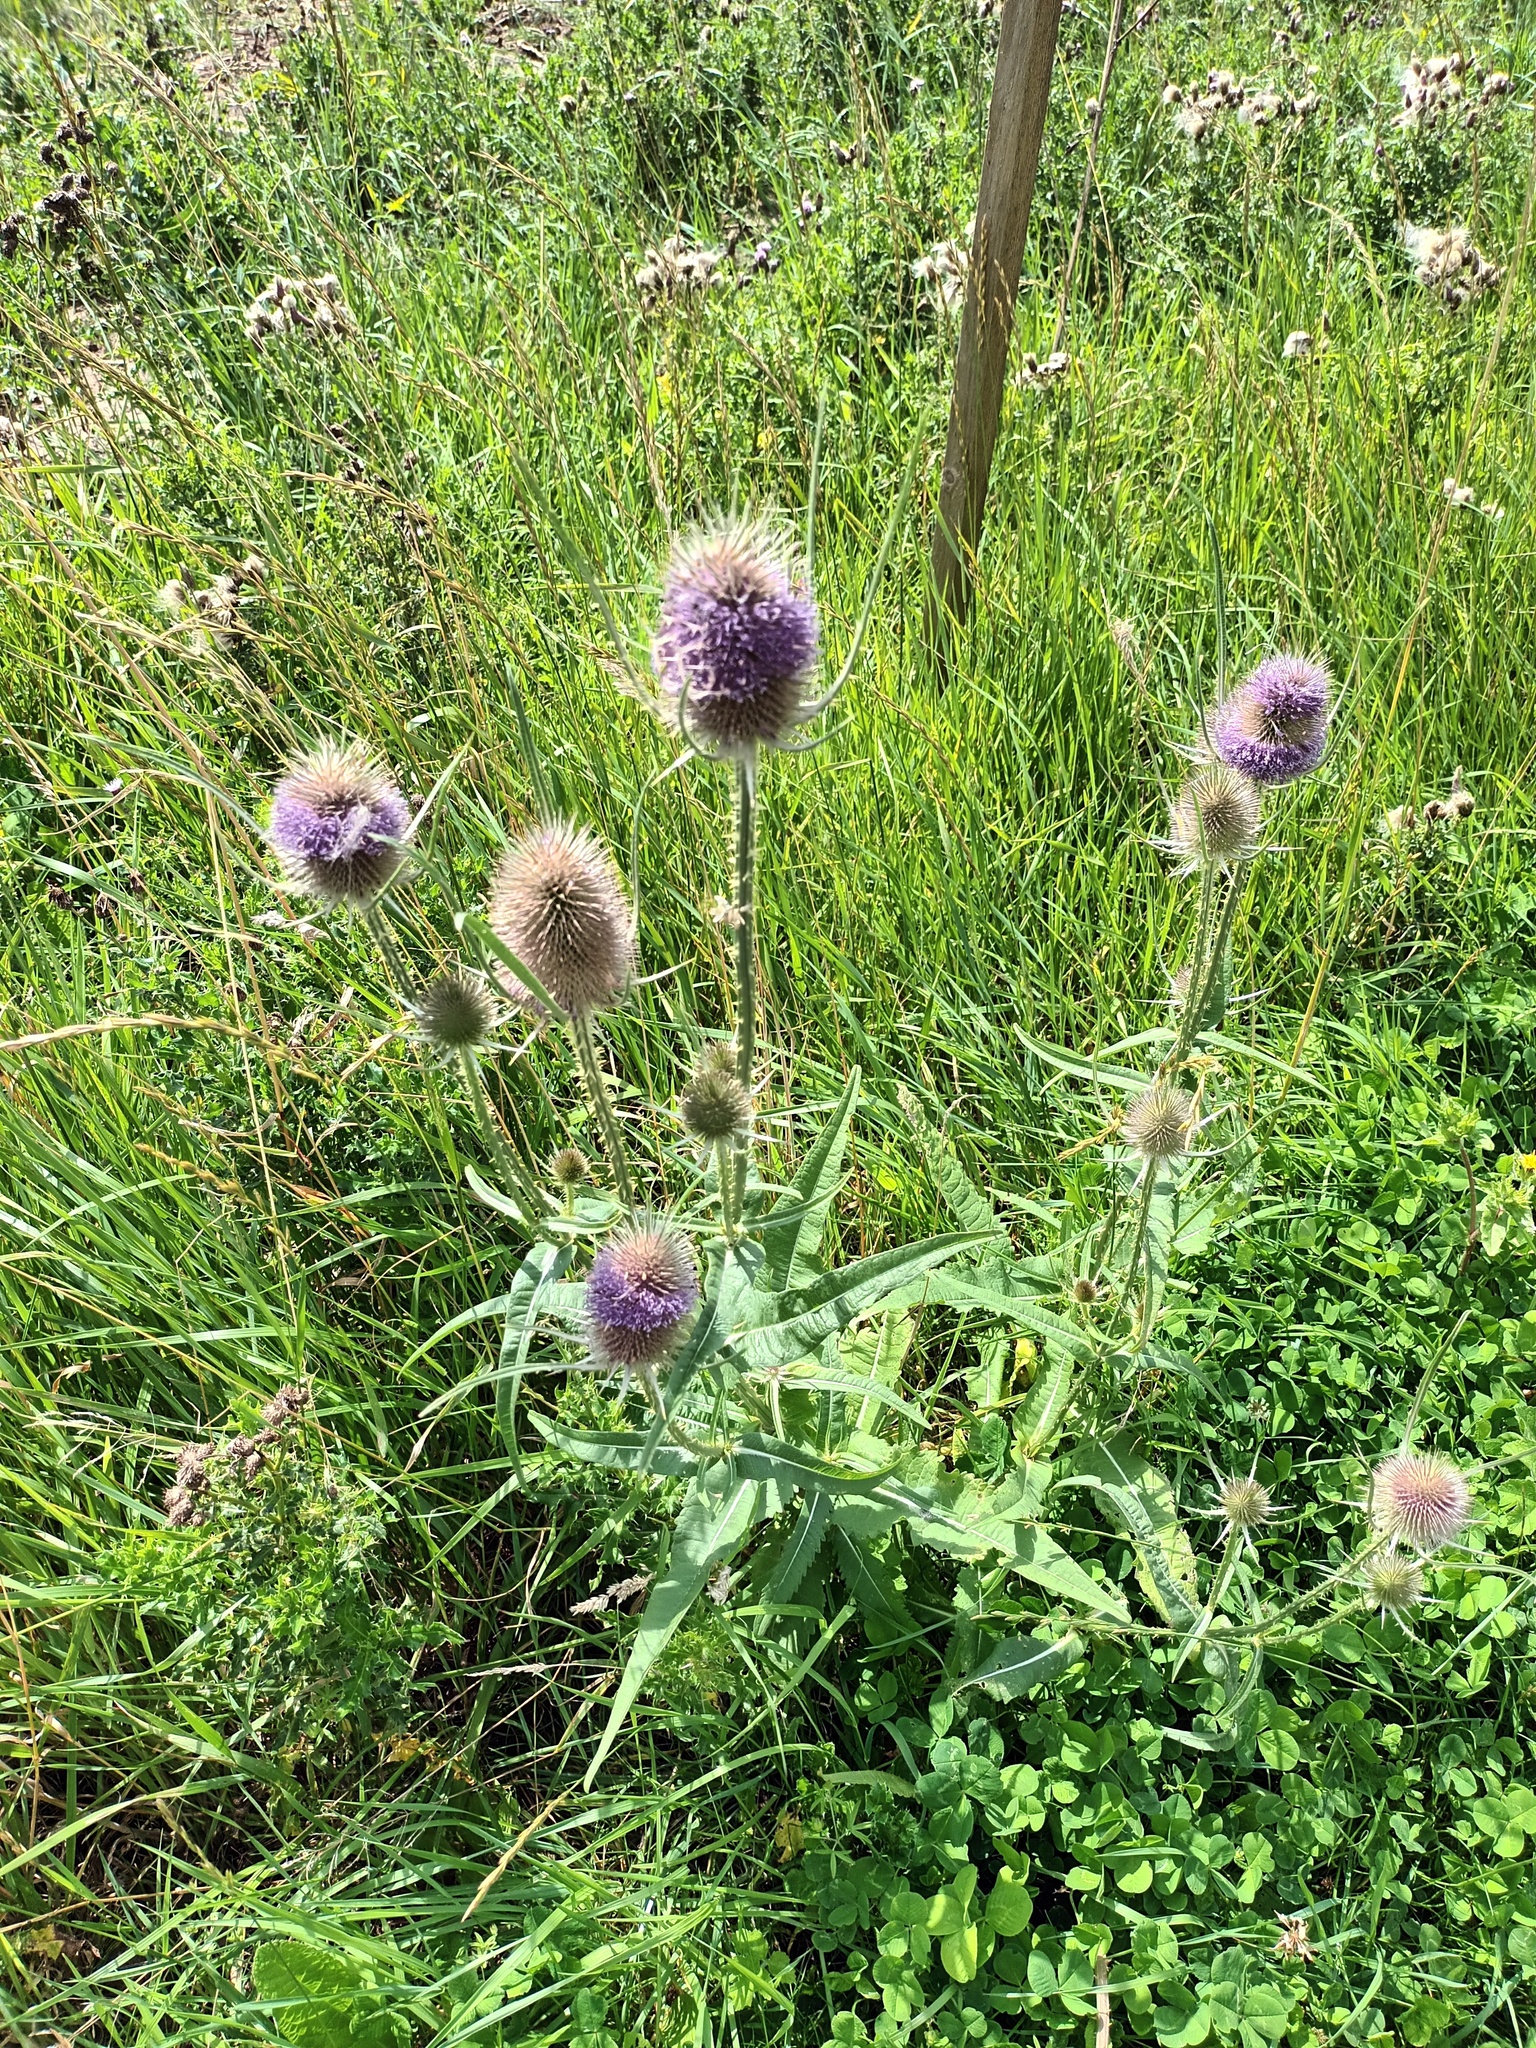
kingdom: Plantae
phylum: Tracheophyta
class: Magnoliopsida
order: Dipsacales
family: Caprifoliaceae
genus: Dipsacus
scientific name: Dipsacus fullonum
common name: Teasel
